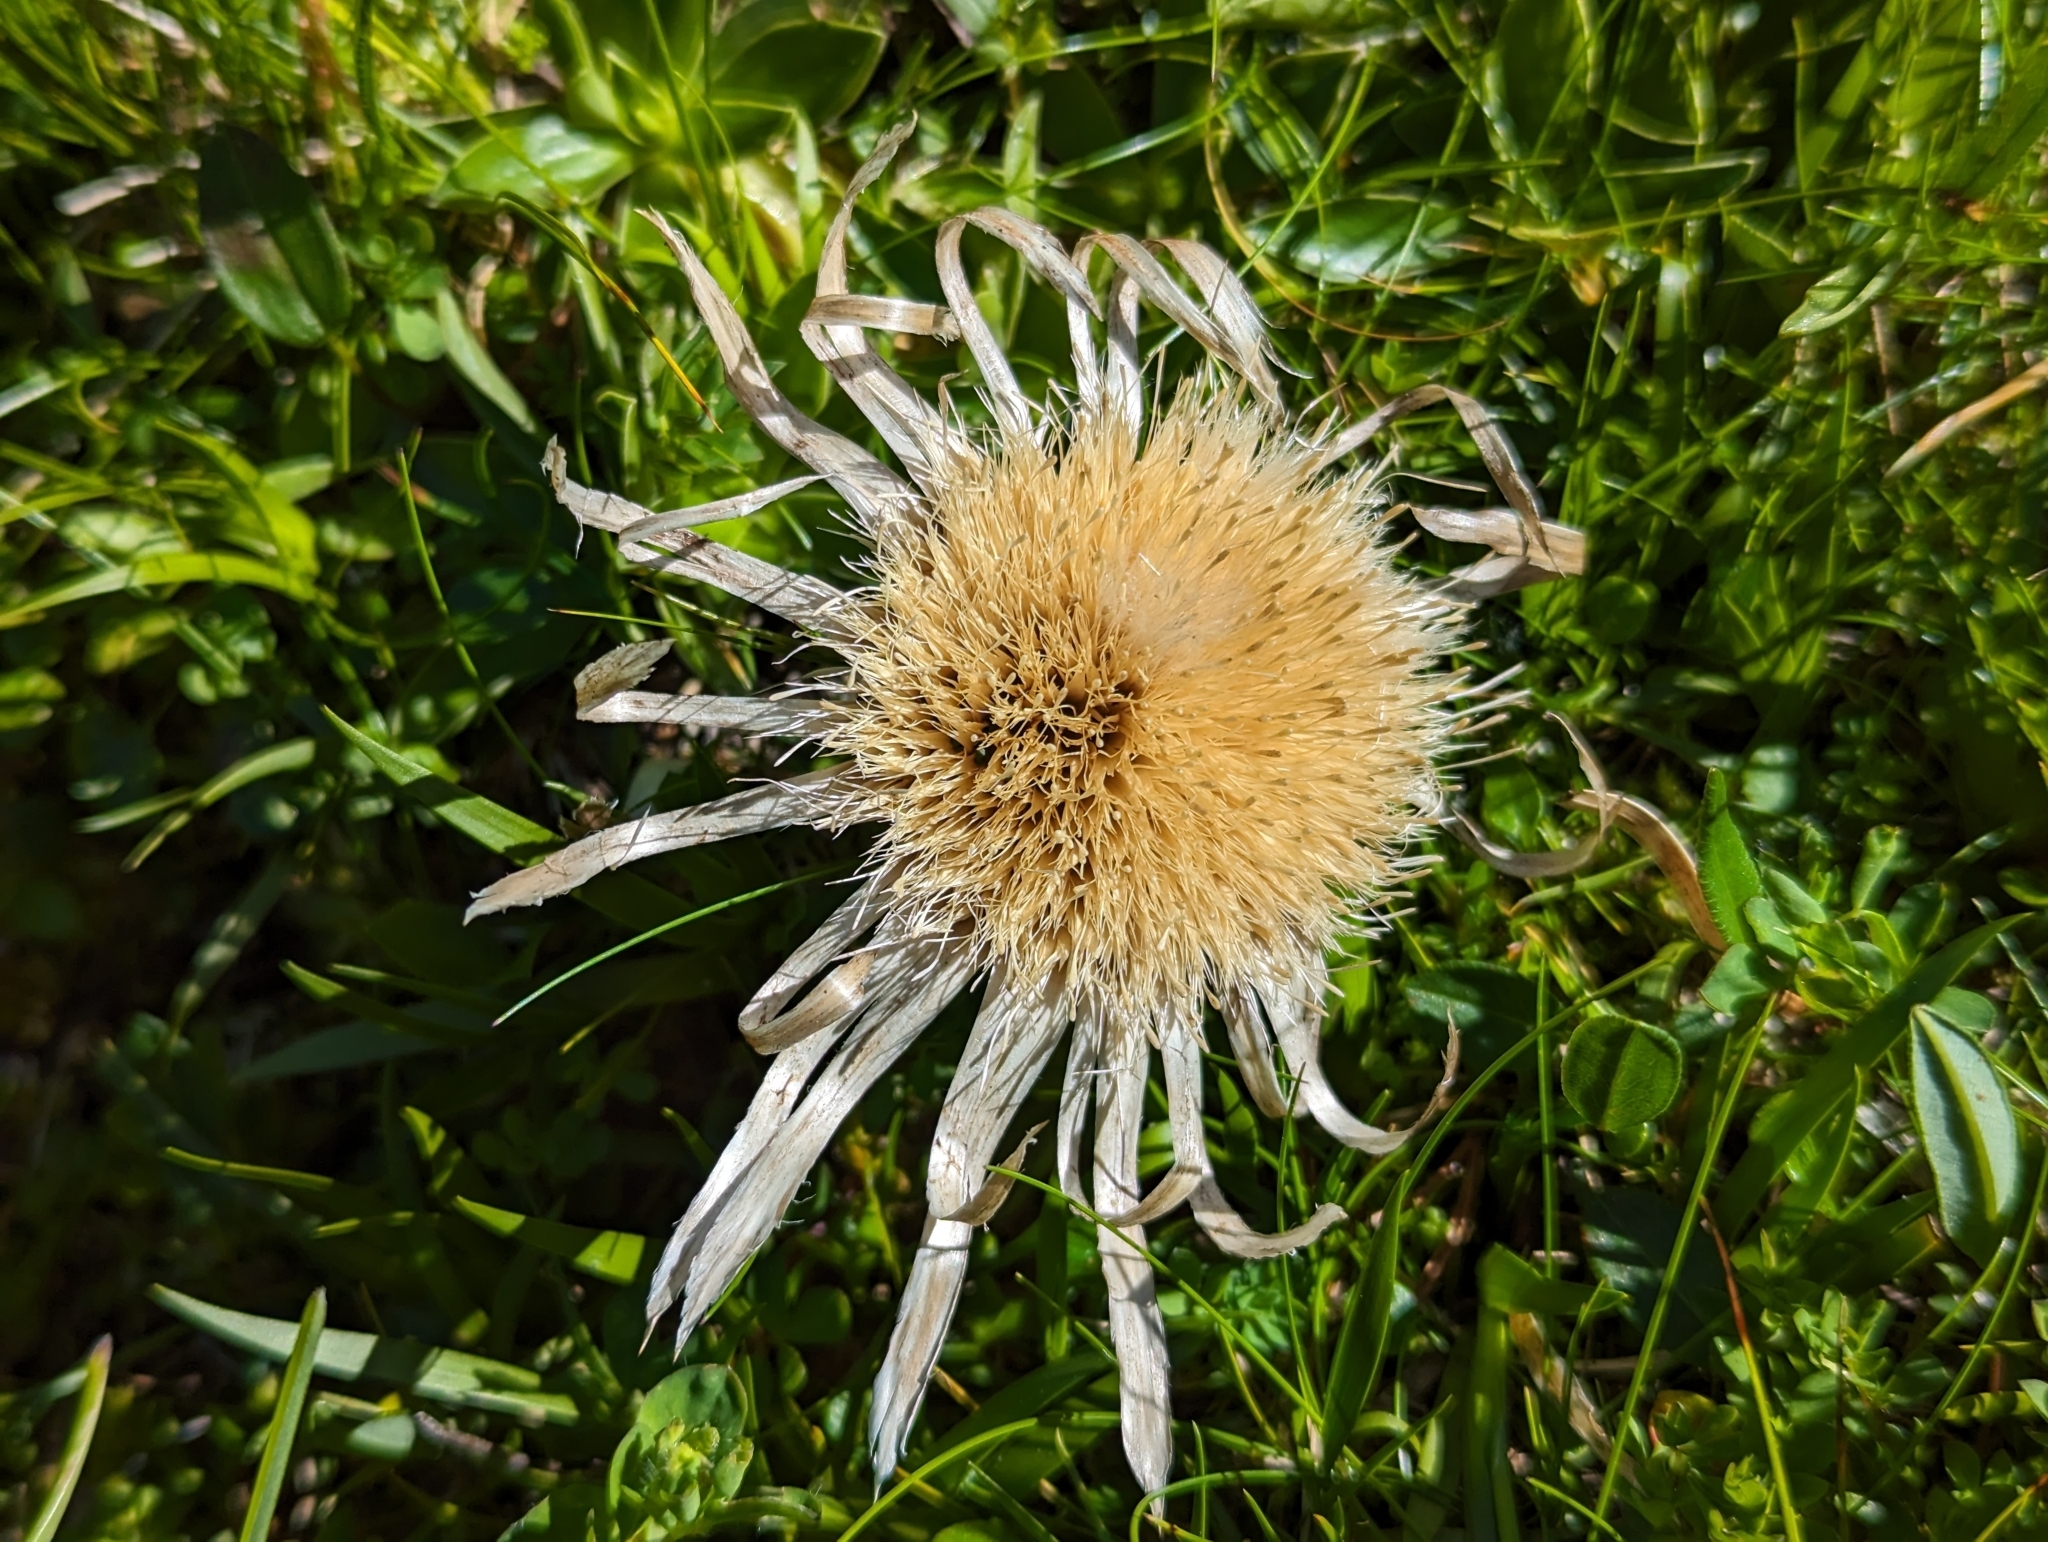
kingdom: Plantae
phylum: Tracheophyta
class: Magnoliopsida
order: Asterales
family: Asteraceae
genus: Carlina
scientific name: Carlina acaulis
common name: Stemless carline thistle
